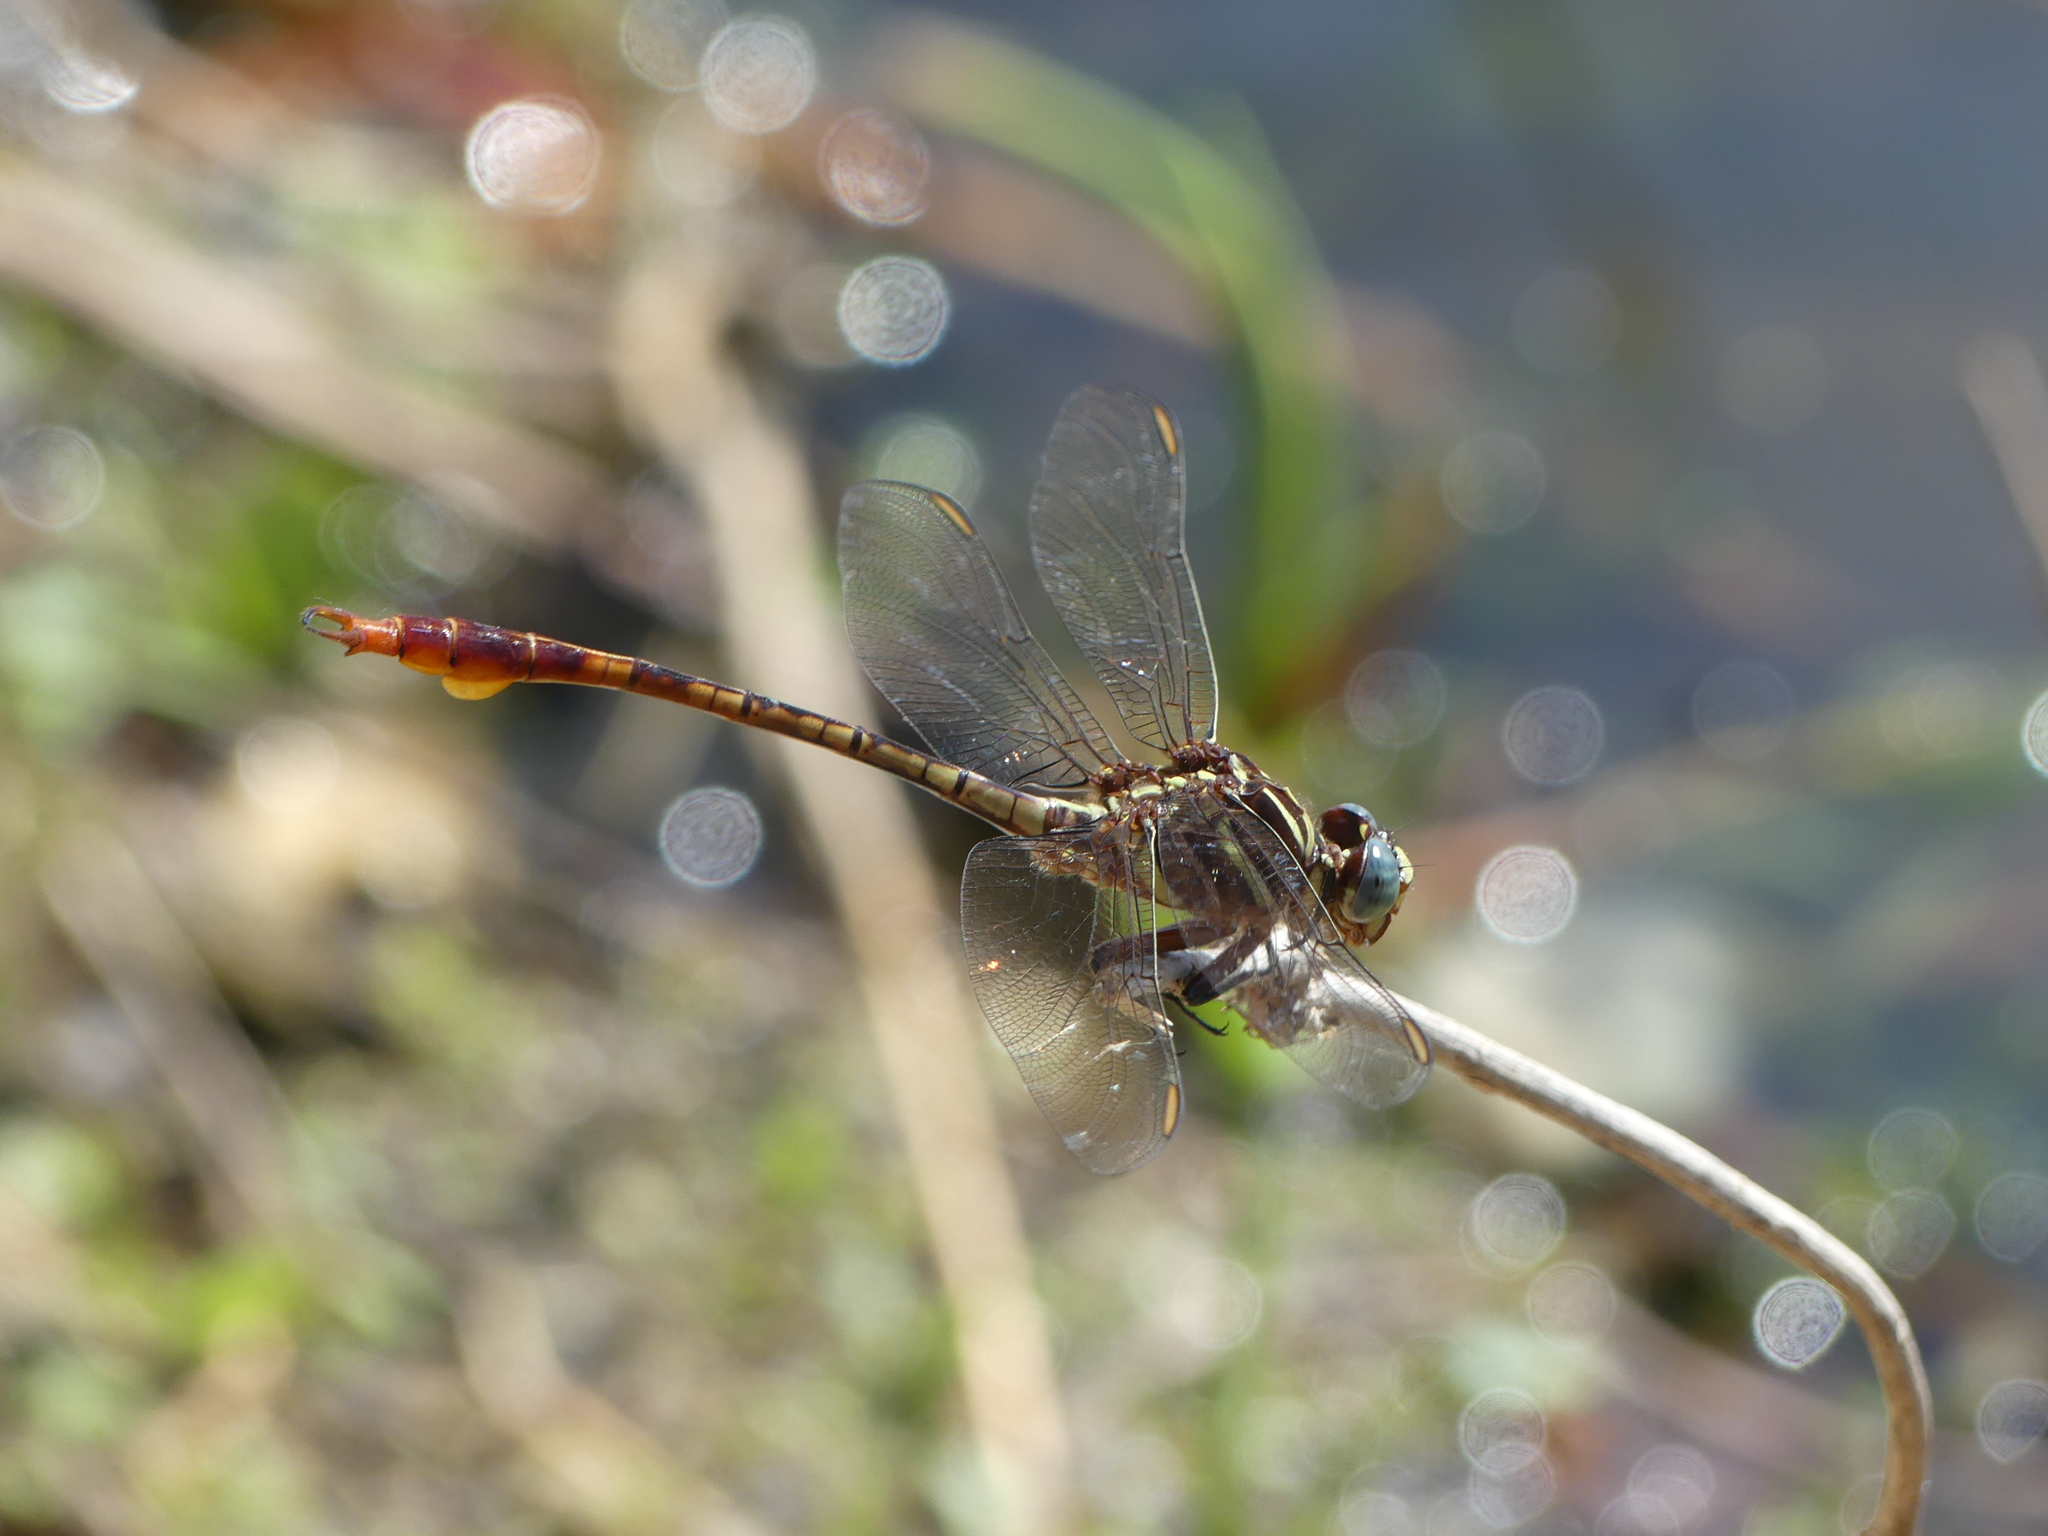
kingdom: Animalia
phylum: Arthropoda
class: Insecta
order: Odonata
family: Gomphidae
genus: Aphylla
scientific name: Aphylla williamsoni
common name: Two-striped forceptail
